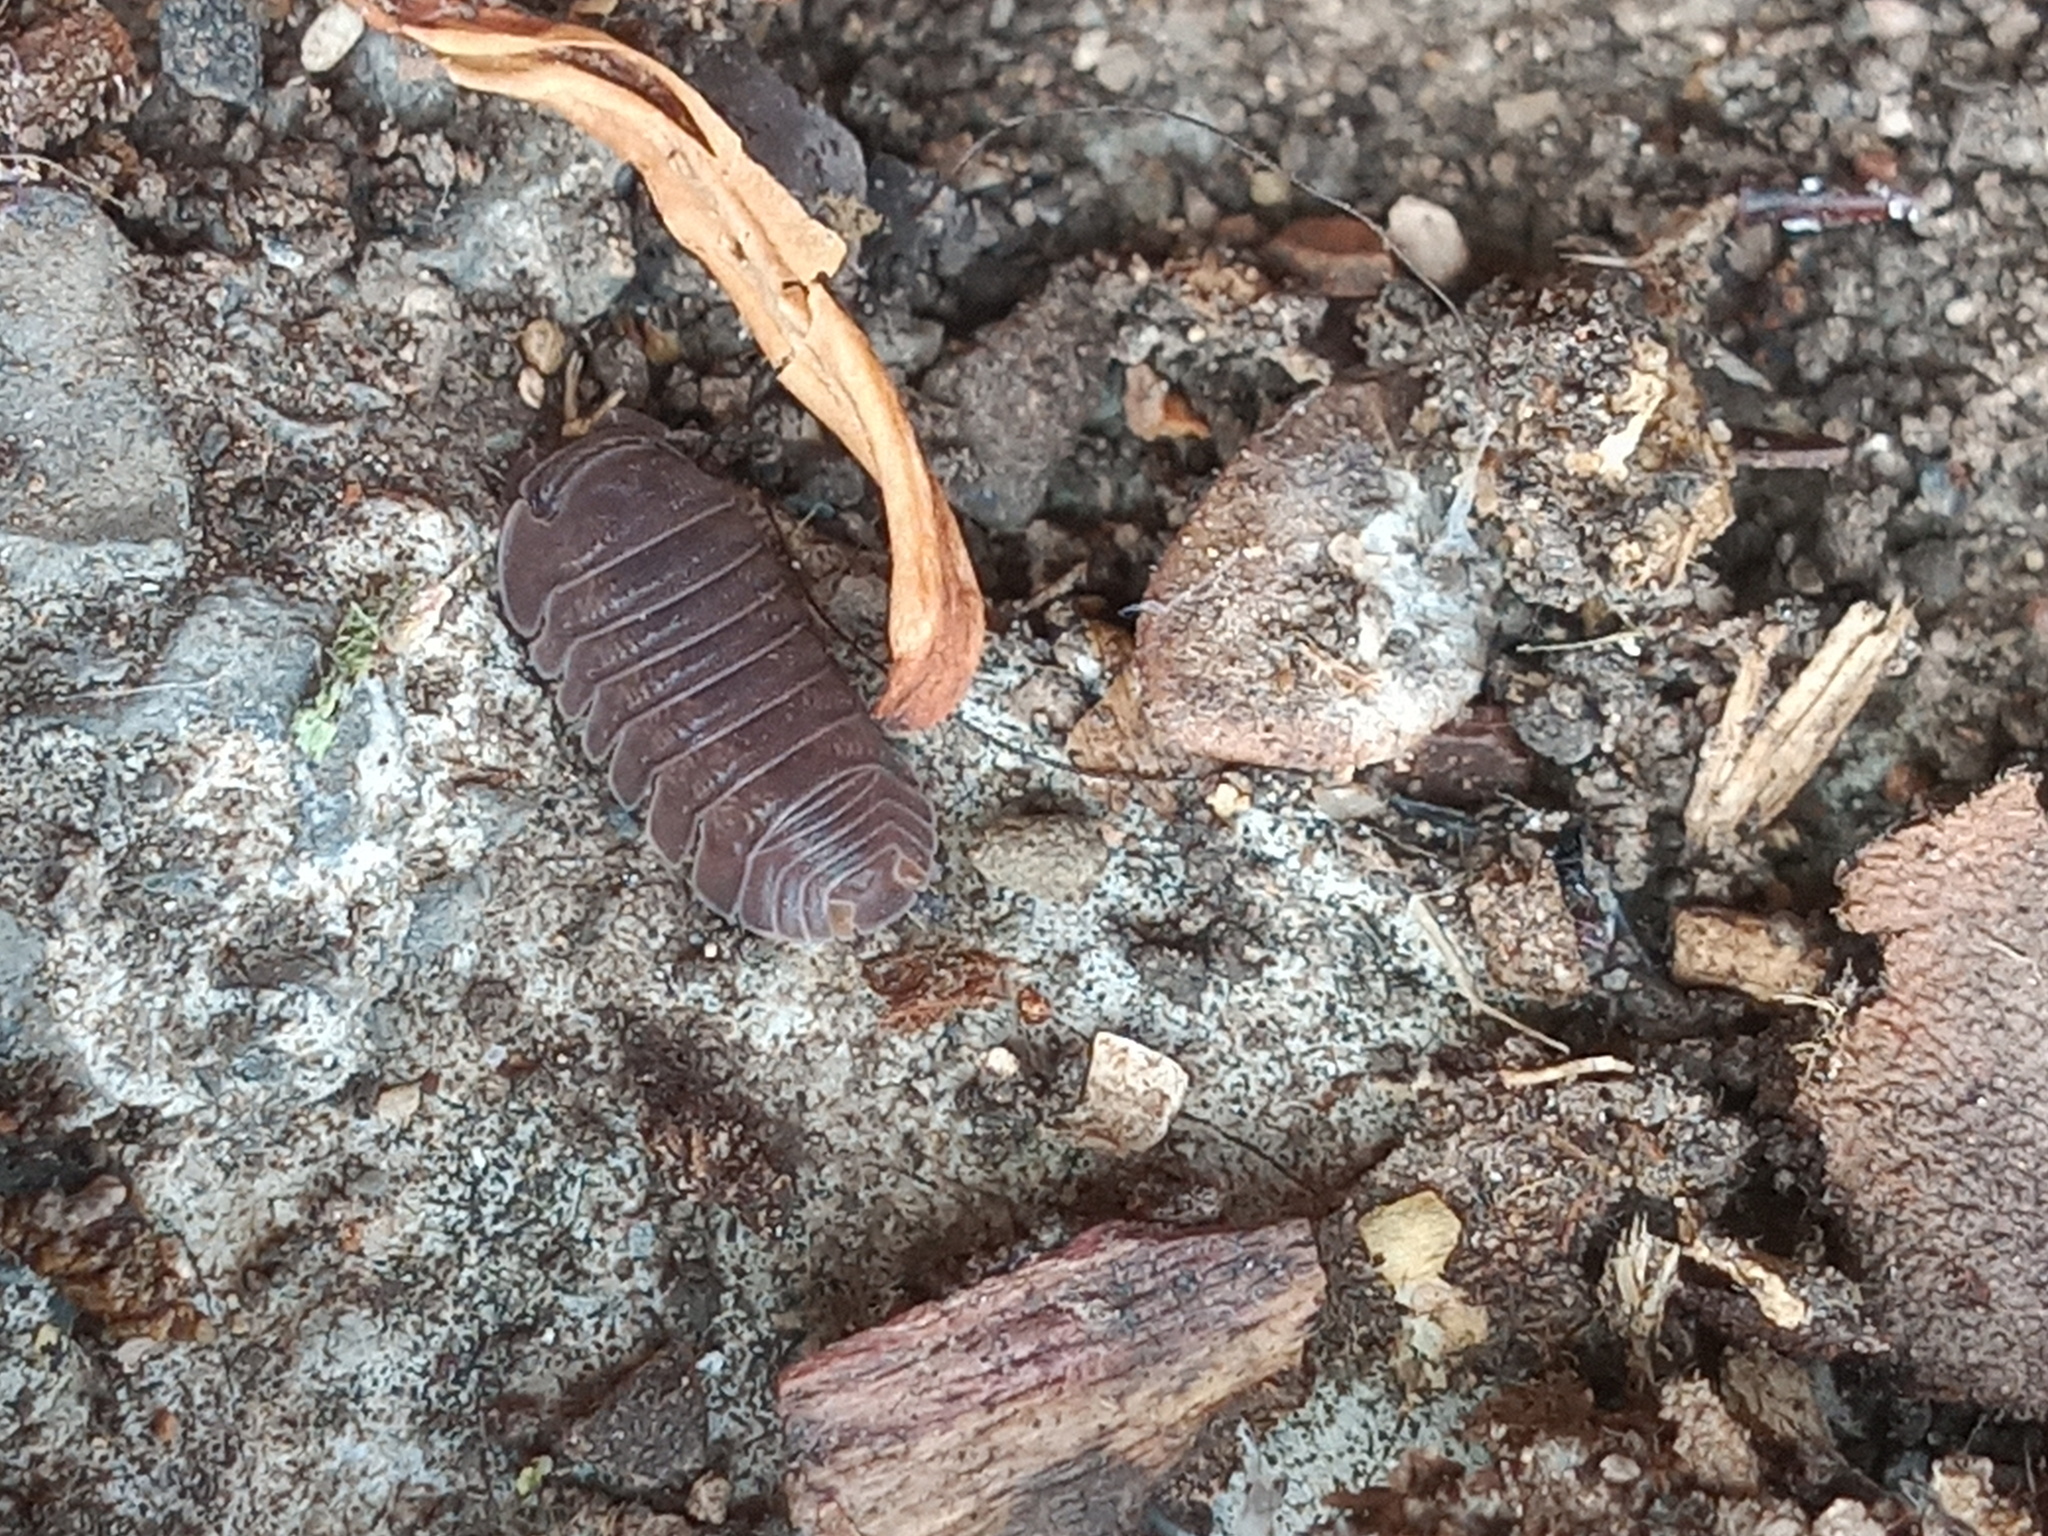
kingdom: Animalia
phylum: Arthropoda
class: Malacostraca
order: Isopoda
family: Armadillidae
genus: Cubaris
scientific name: Cubaris murina
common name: Pillbug
